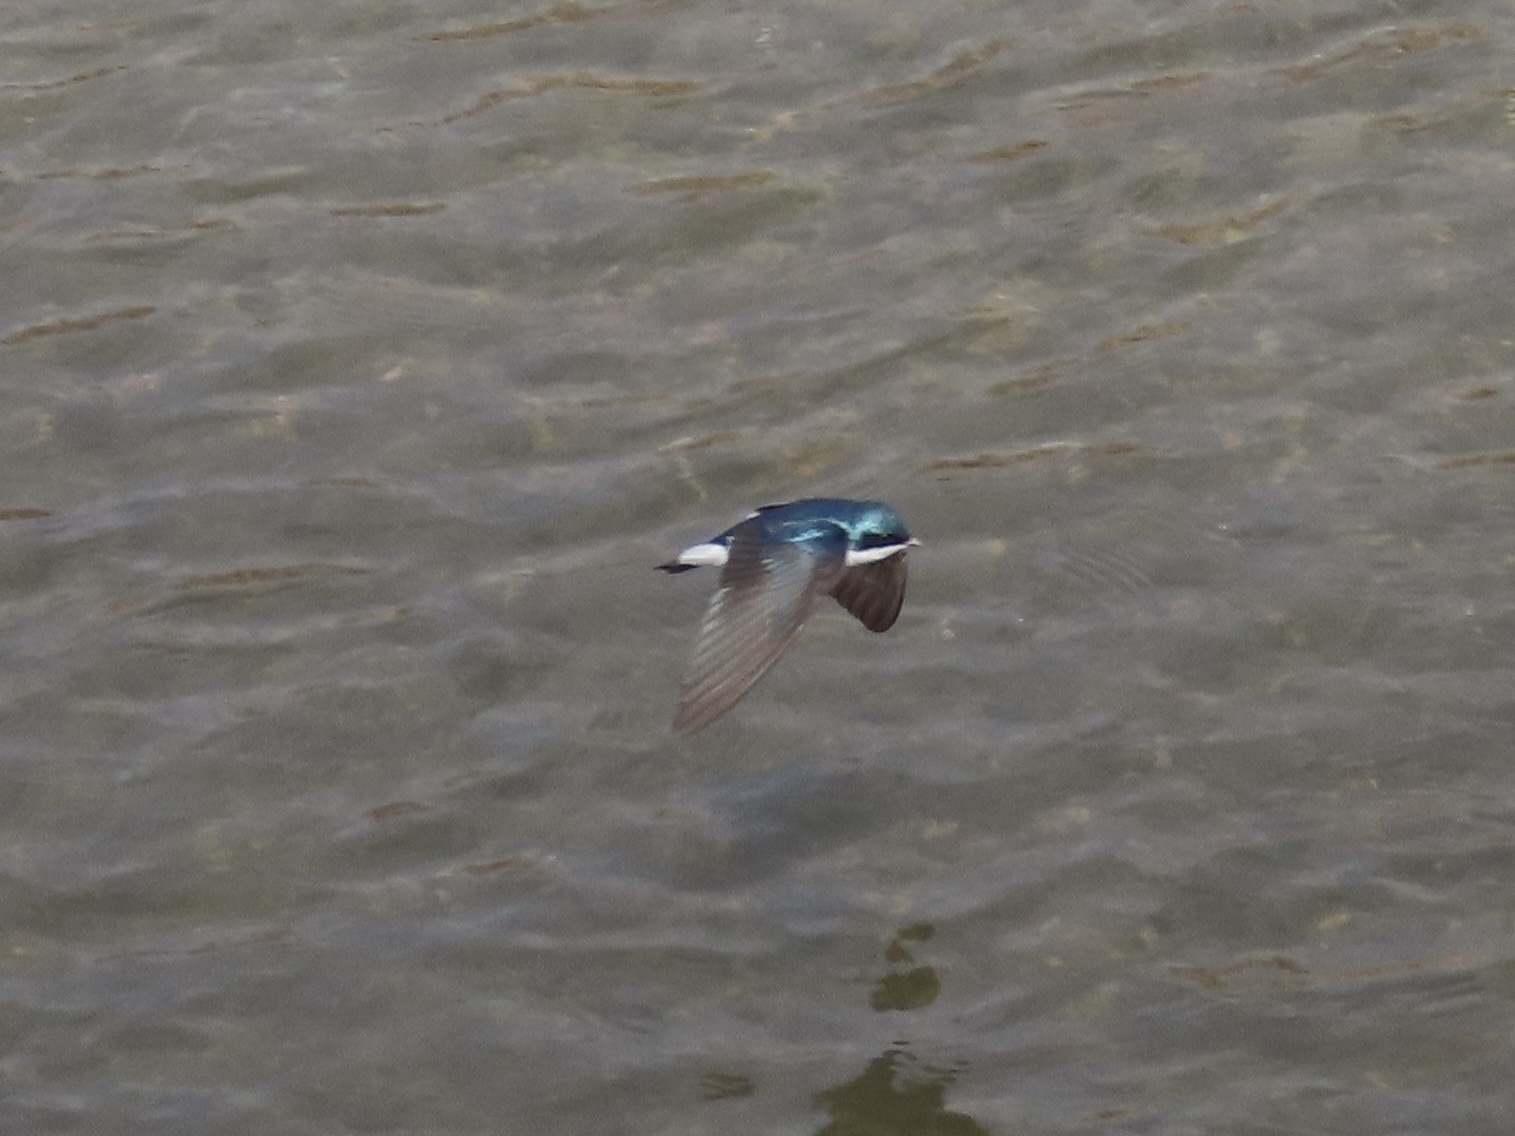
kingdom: Animalia
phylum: Chordata
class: Aves
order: Passeriformes
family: Hirundinidae
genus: Tachycineta
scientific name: Tachycineta bicolor
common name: Tree swallow
